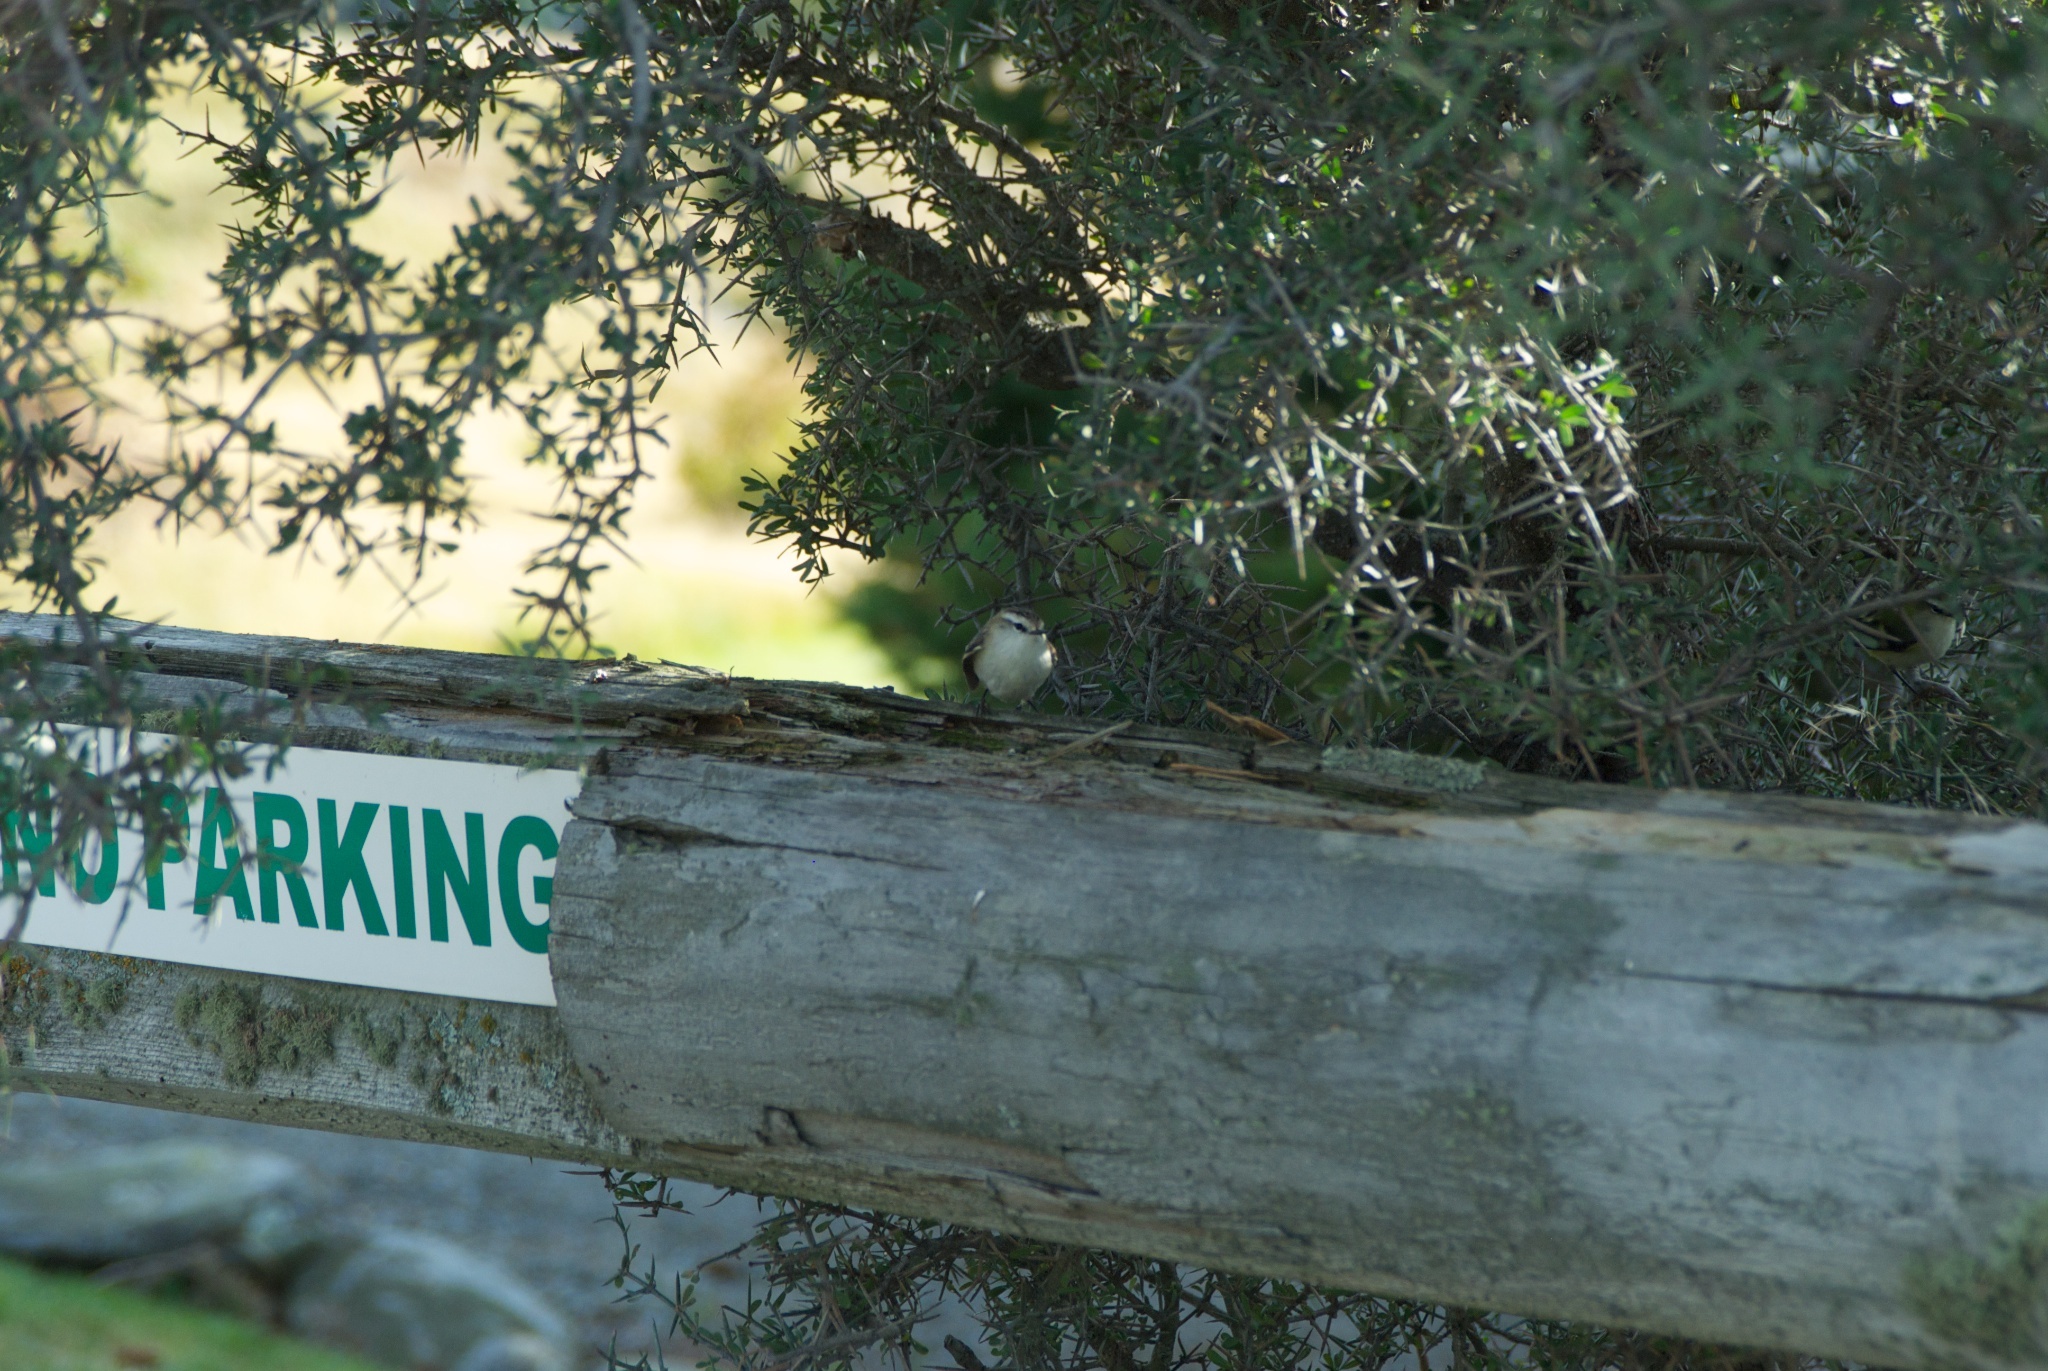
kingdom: Animalia
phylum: Chordata
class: Aves
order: Passeriformes
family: Acanthisittidae
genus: Acanthisitta
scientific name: Acanthisitta chloris
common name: Rifleman
